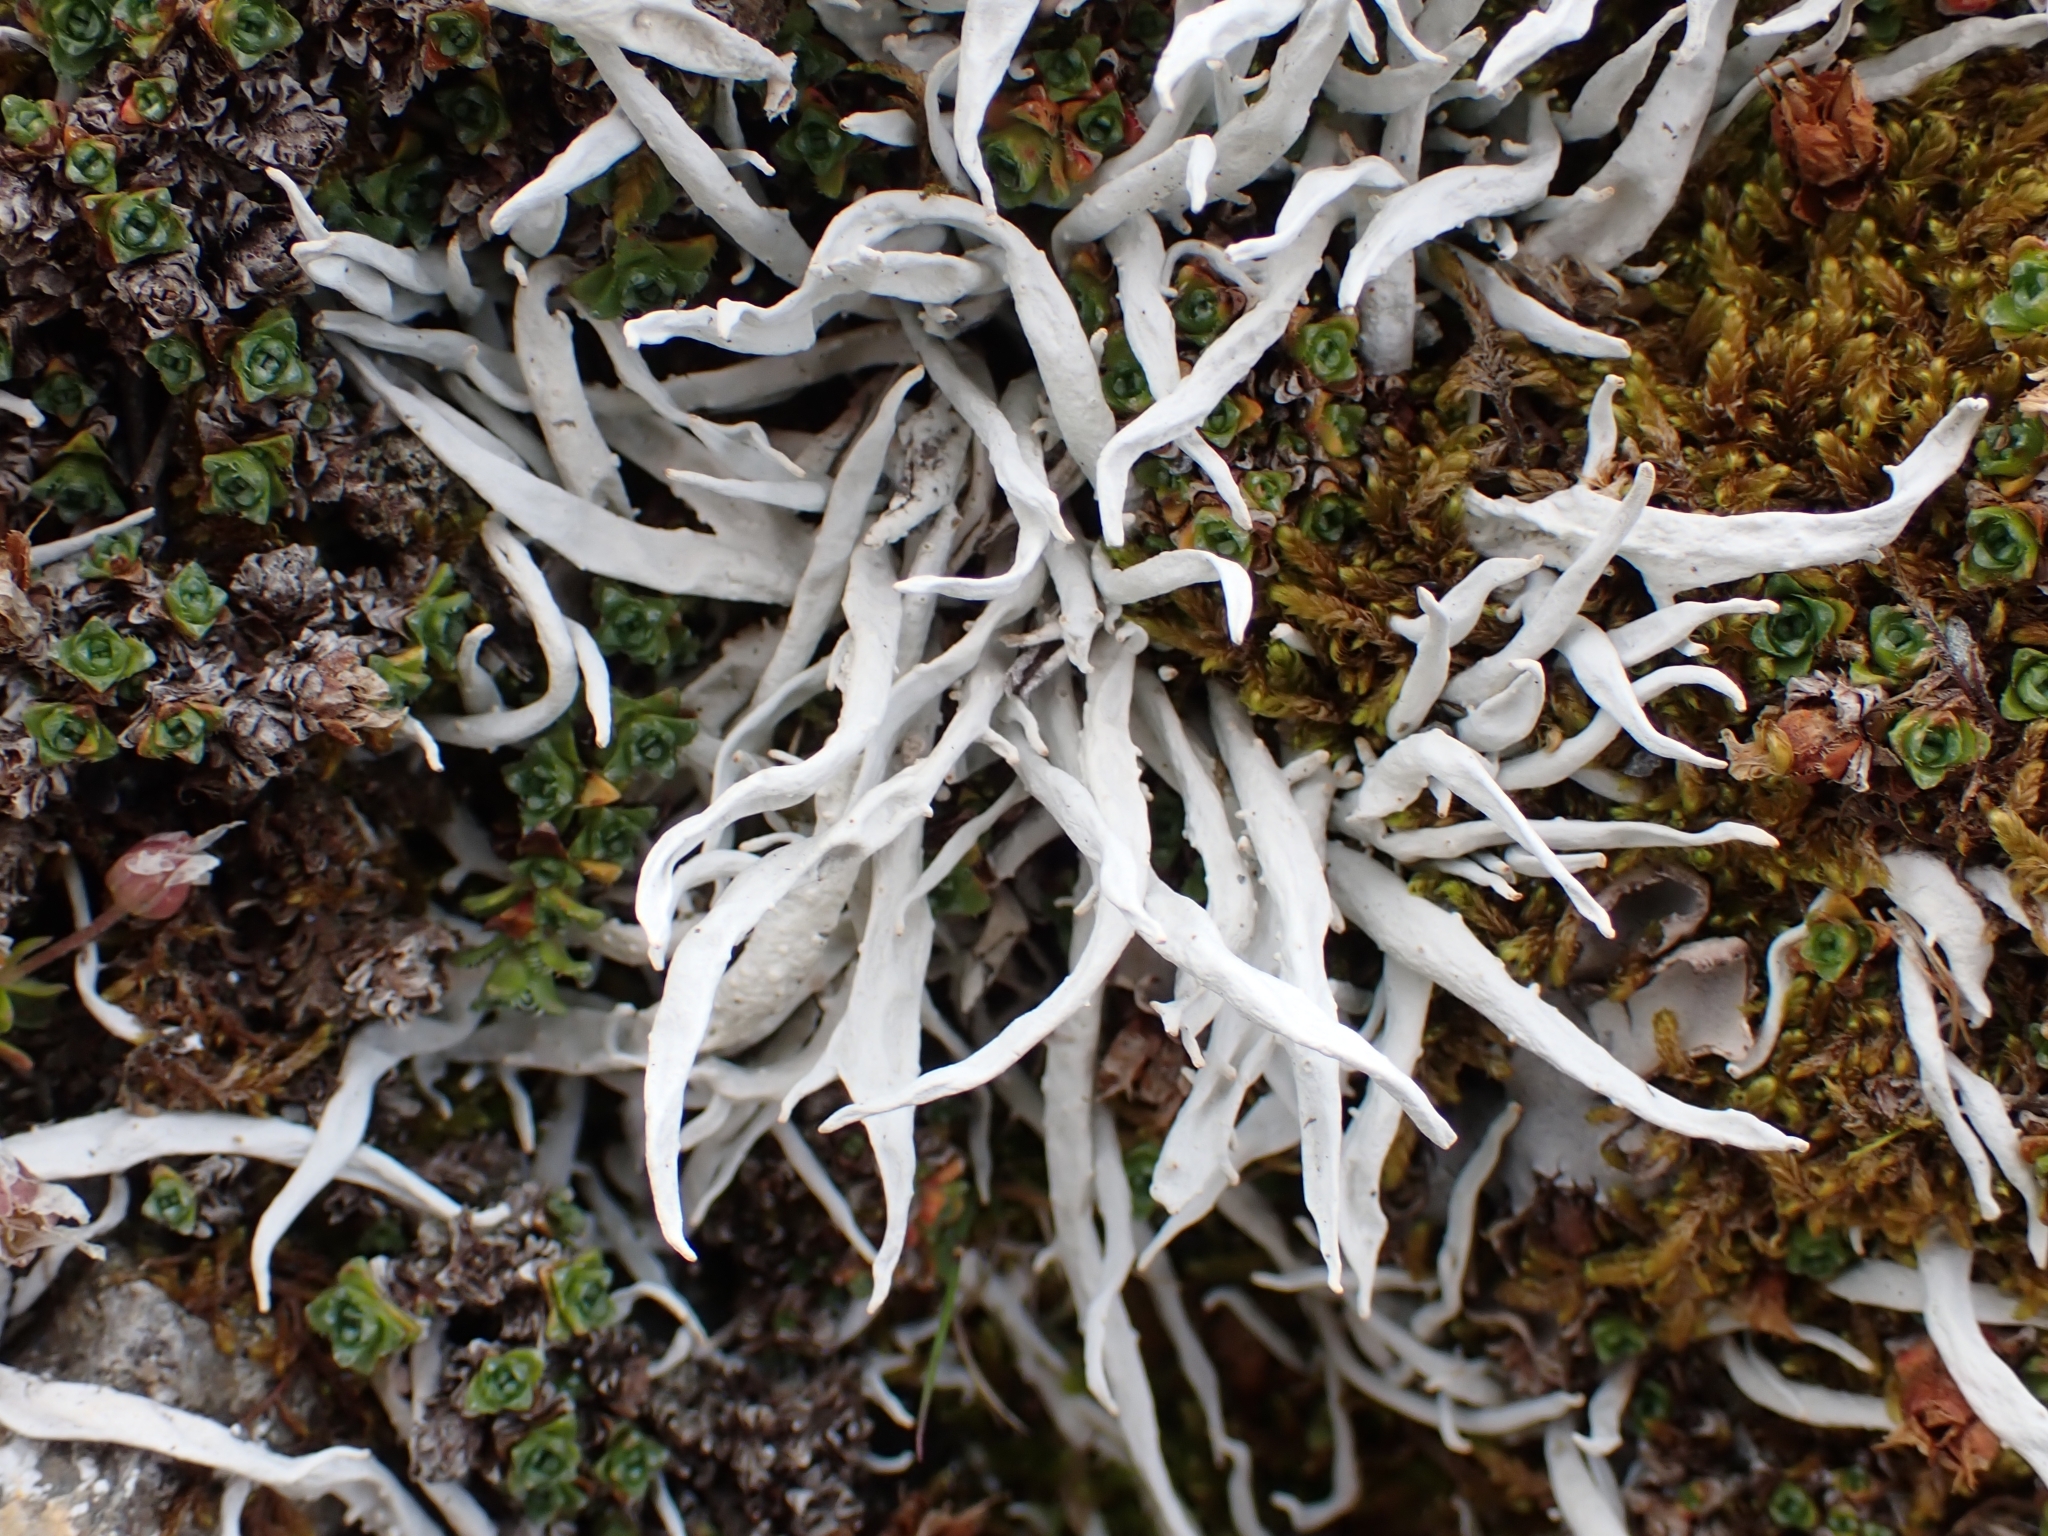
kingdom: Fungi
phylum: Ascomycota
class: Lecanoromycetes
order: Pertusariales
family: Icmadophilaceae
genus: Thamnolia
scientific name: Thamnolia vermicularis
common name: Whiteworm lichen
